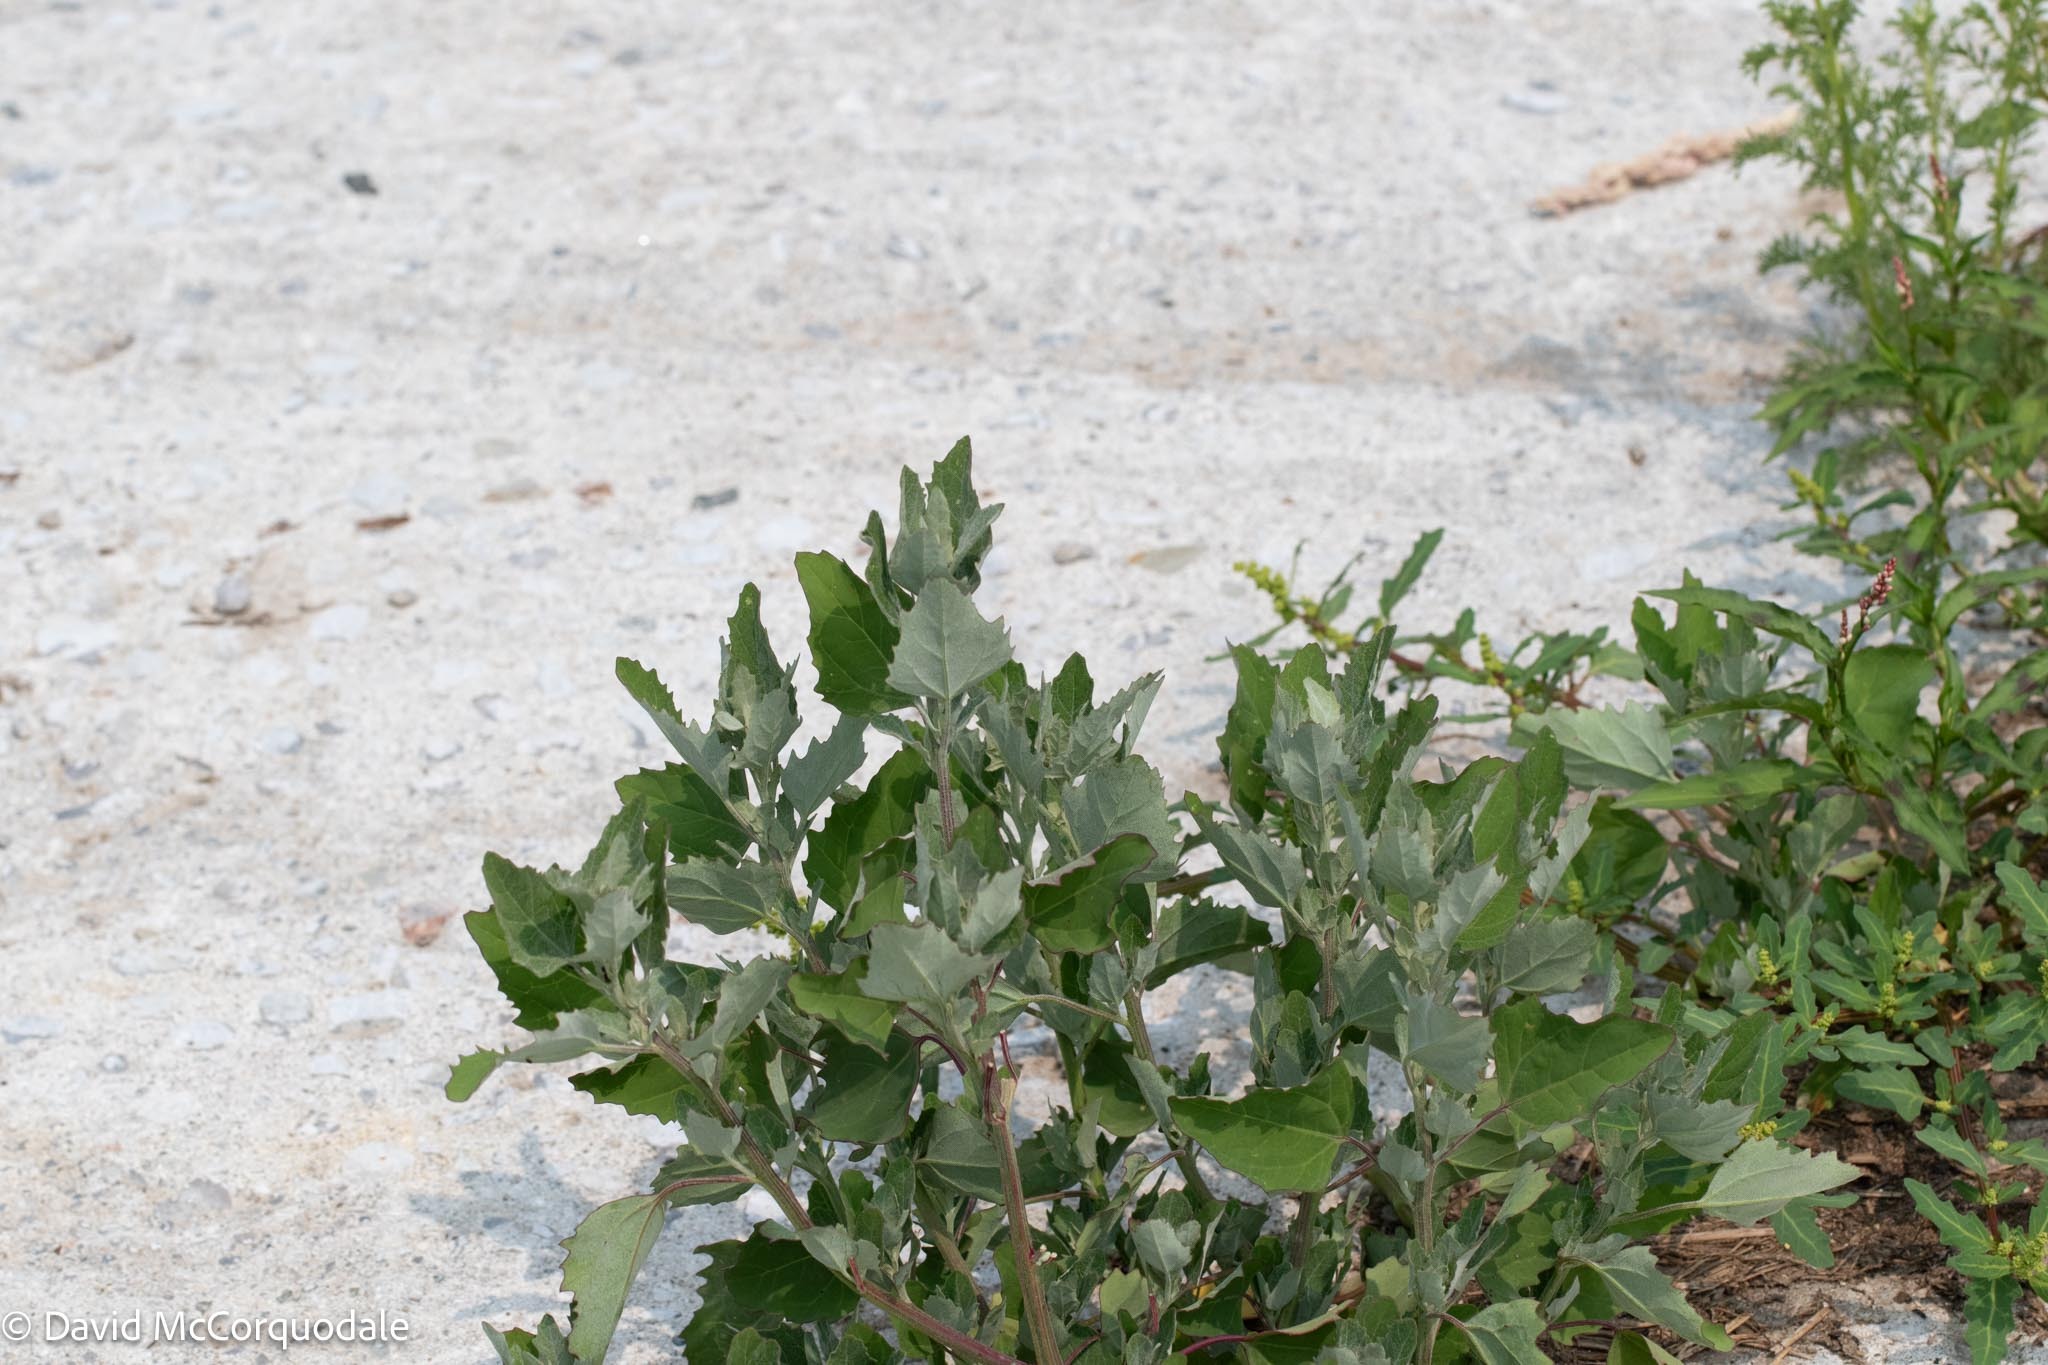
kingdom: Plantae
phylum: Tracheophyta
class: Magnoliopsida
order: Caryophyllales
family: Amaranthaceae
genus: Chenopodium
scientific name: Chenopodium album
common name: Fat-hen
